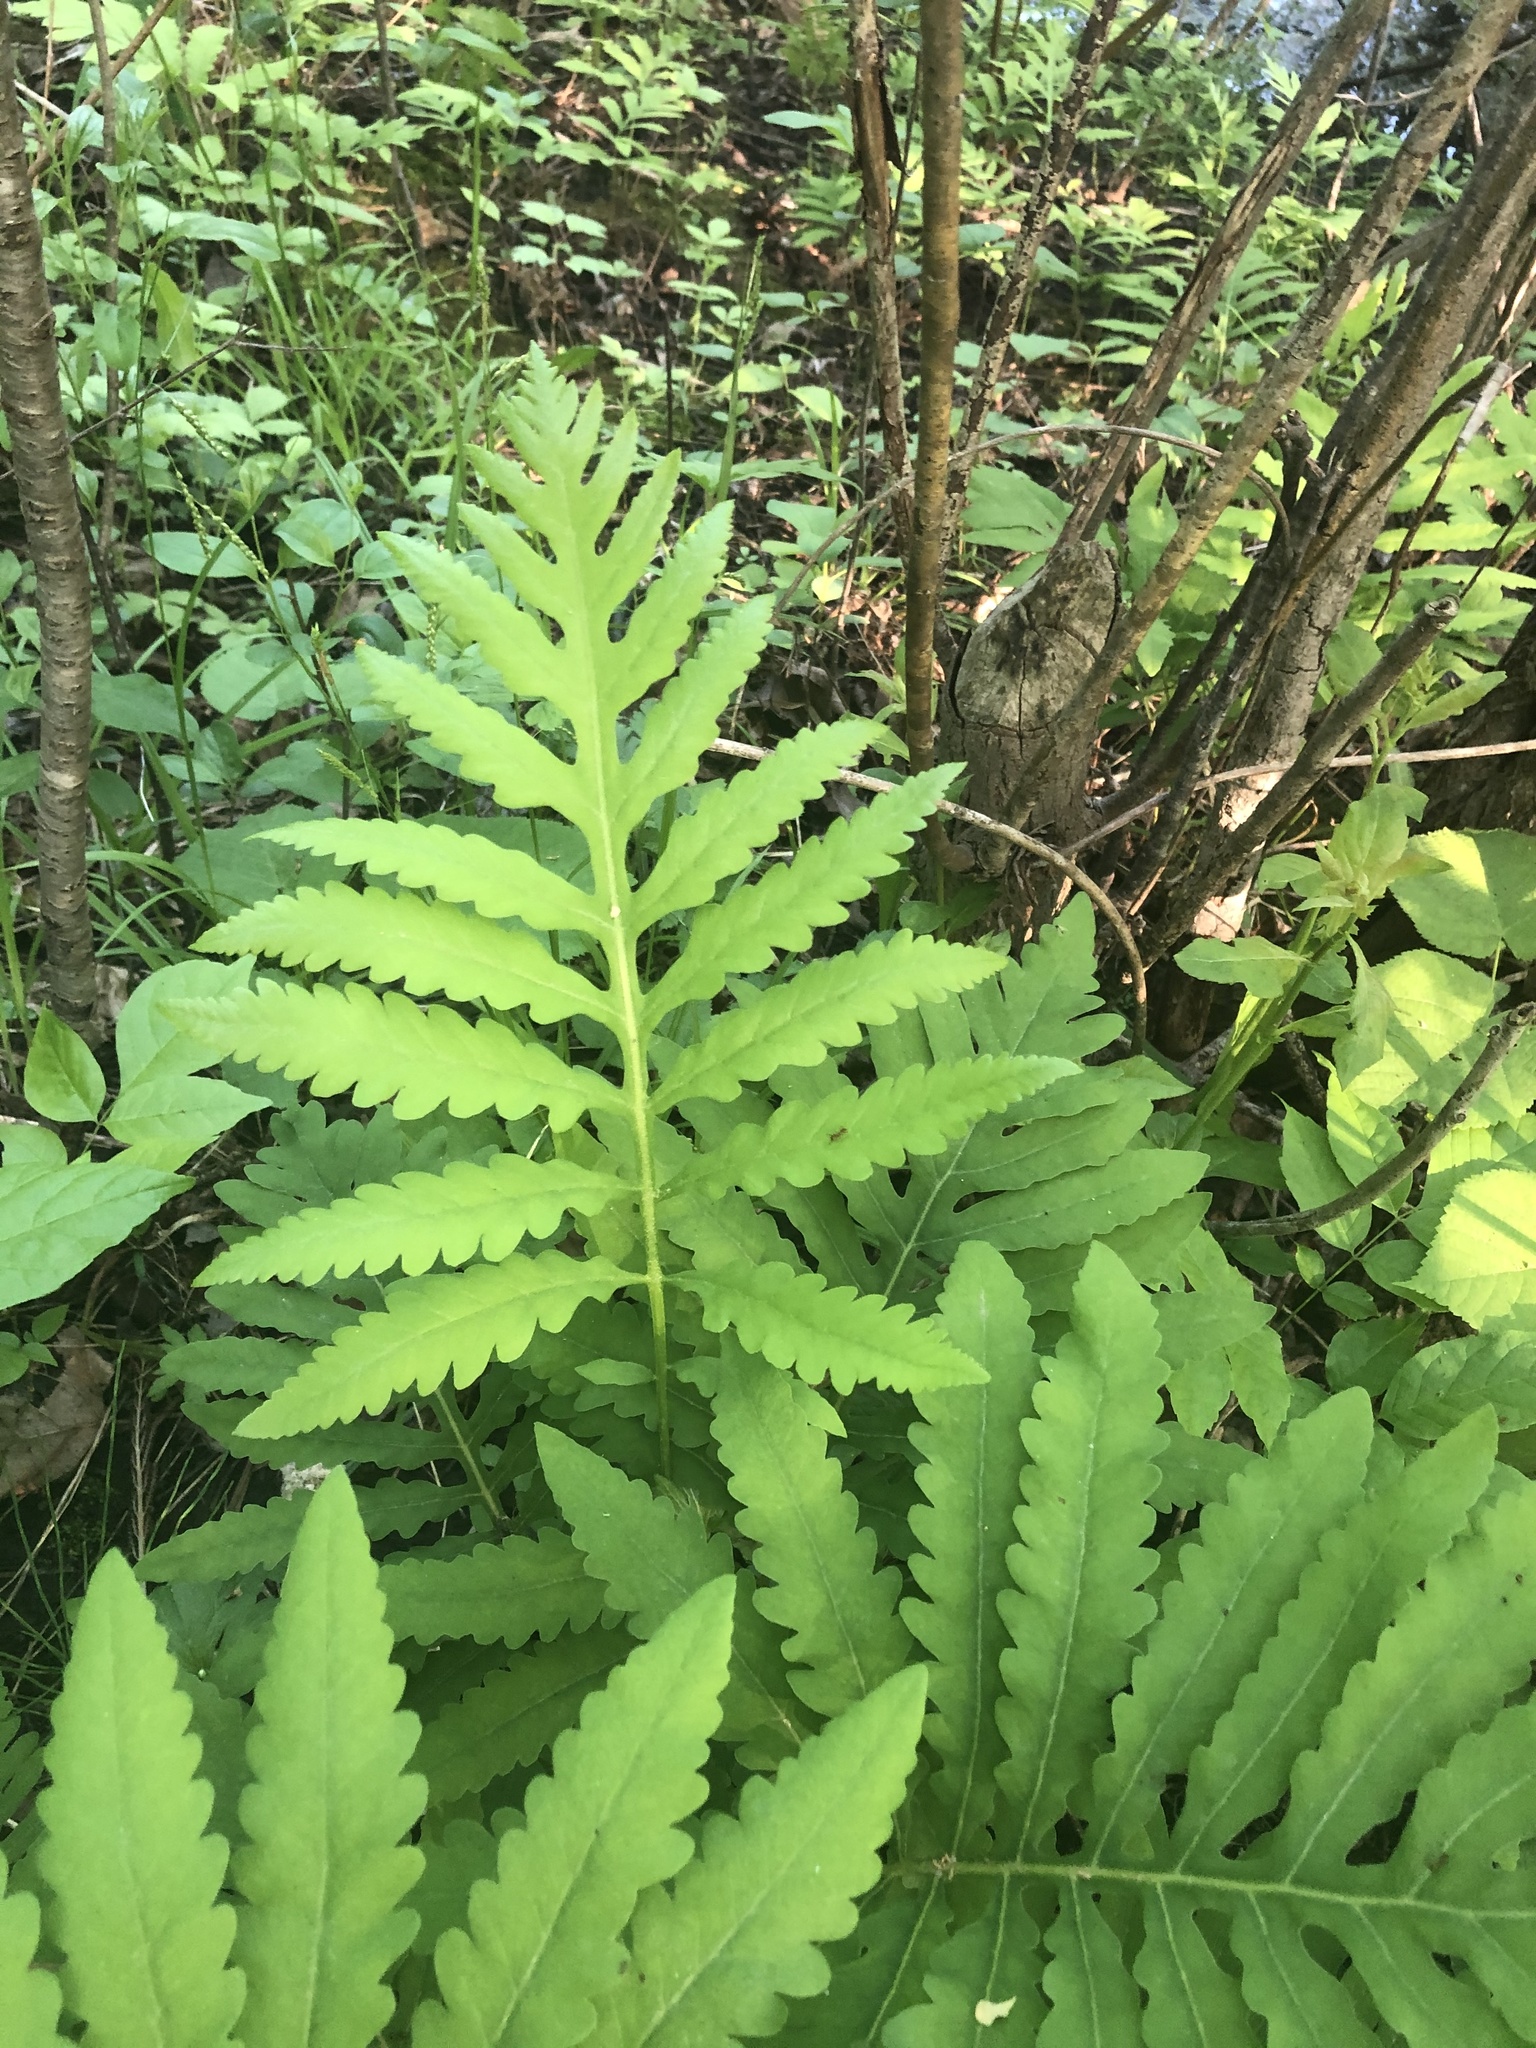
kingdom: Plantae
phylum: Tracheophyta
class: Polypodiopsida
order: Polypodiales
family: Onocleaceae
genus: Onoclea
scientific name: Onoclea sensibilis
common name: Sensitive fern
